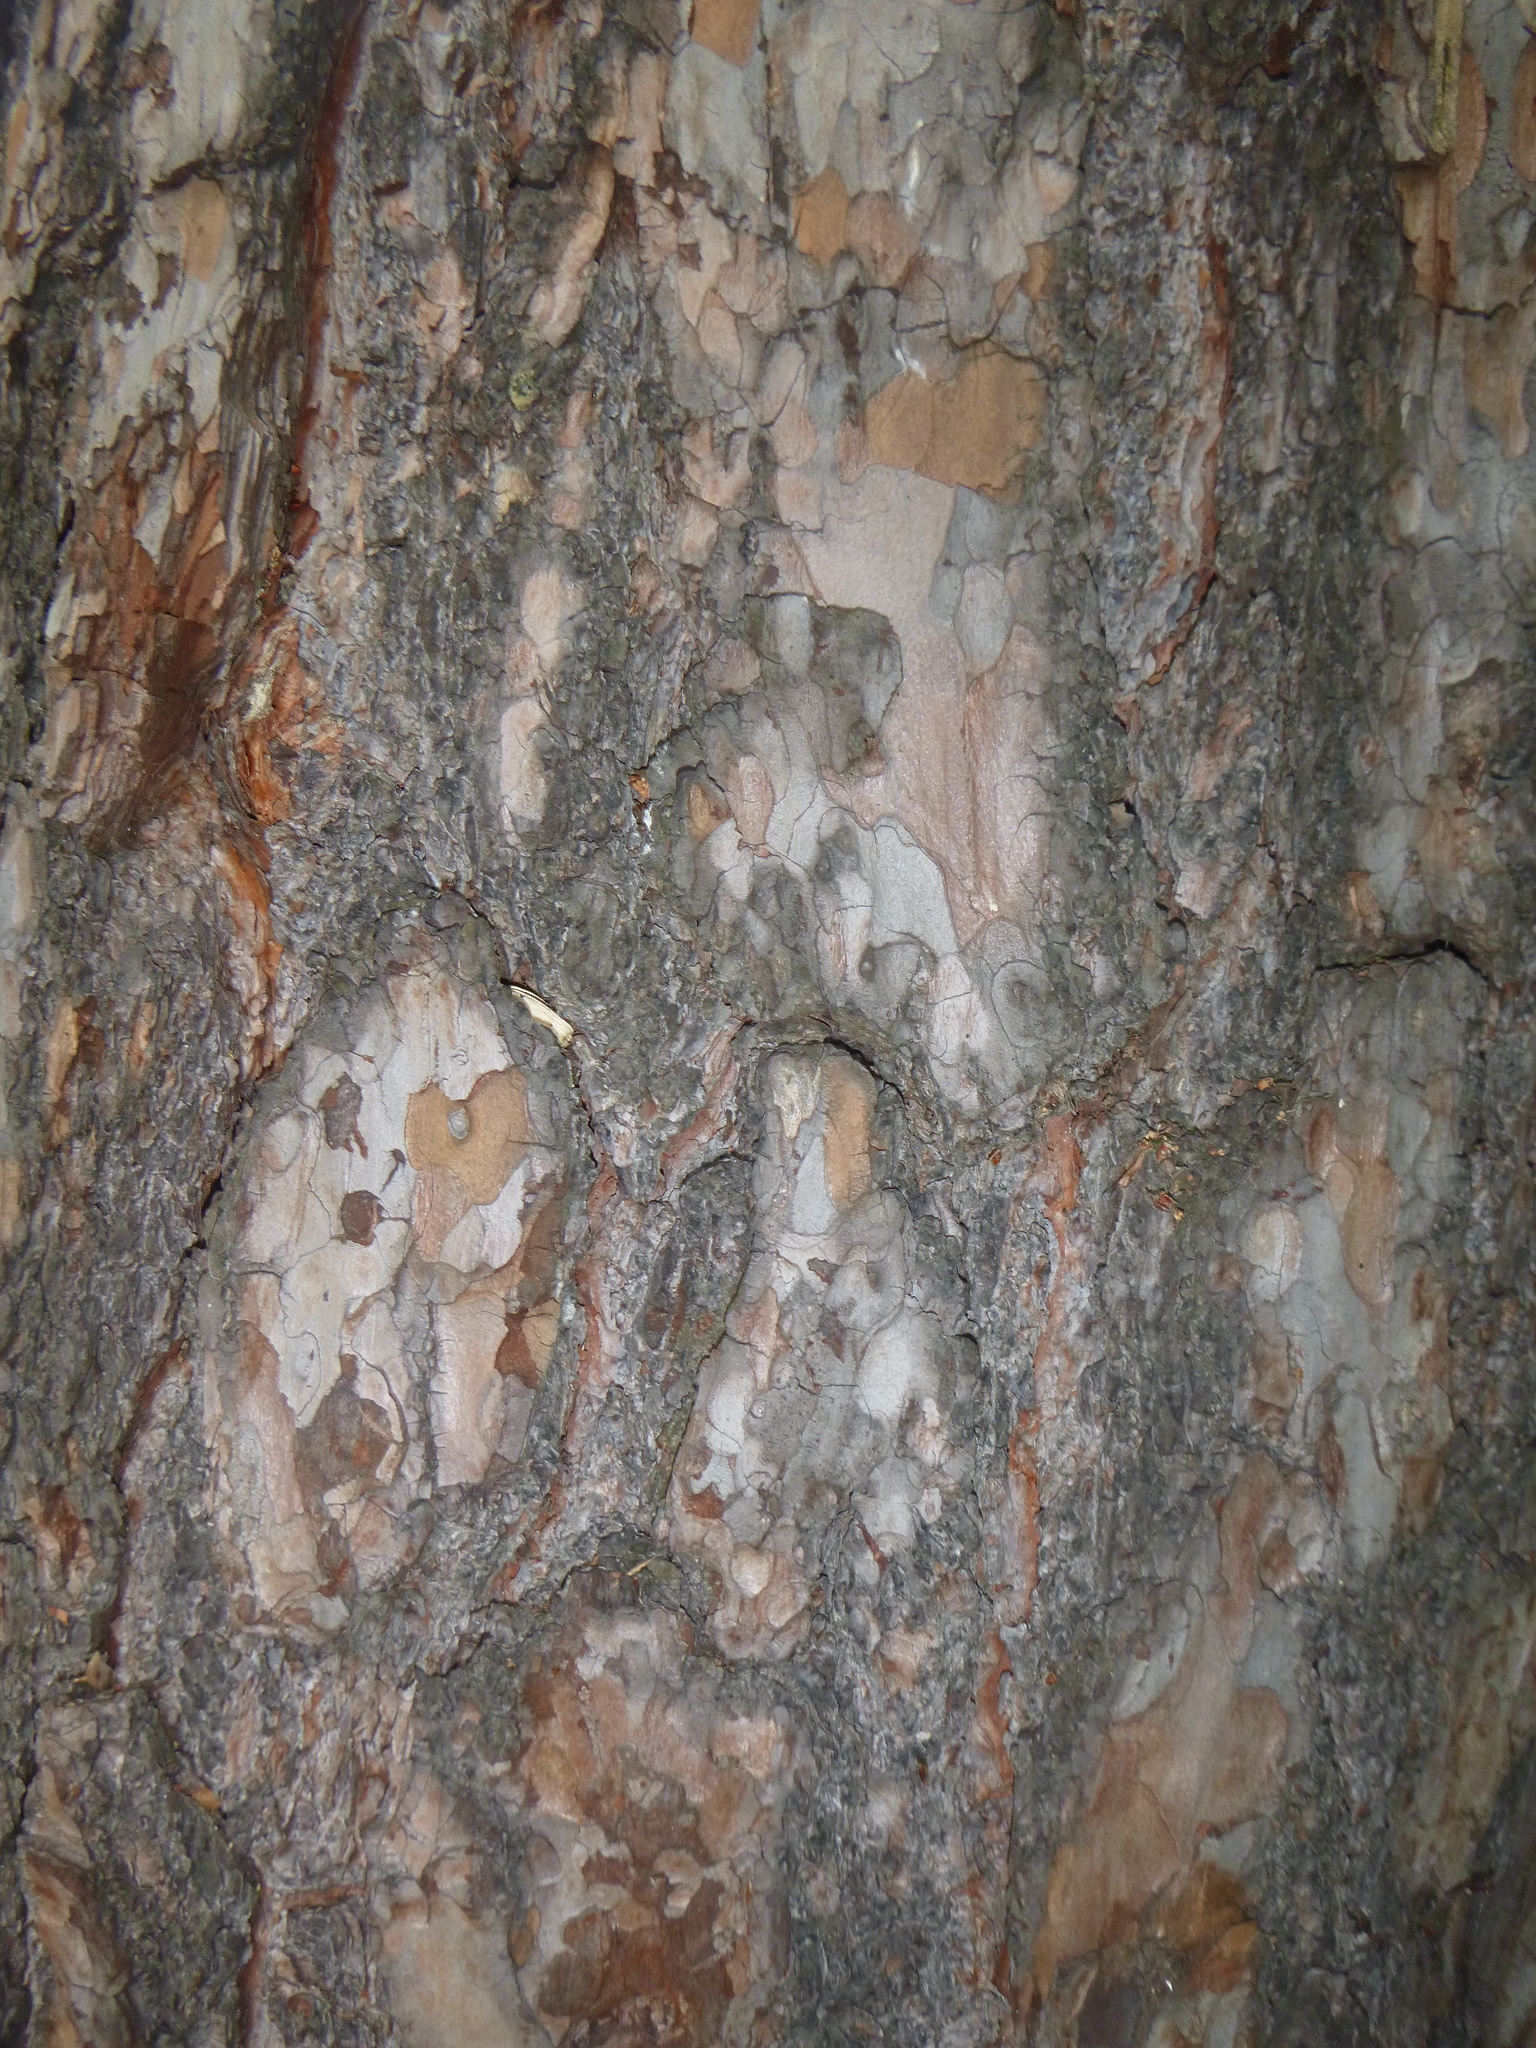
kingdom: Plantae
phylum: Tracheophyta
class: Pinopsida
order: Pinales
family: Pinaceae
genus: Pinus
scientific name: Pinus sylvestris
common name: Scots pine
